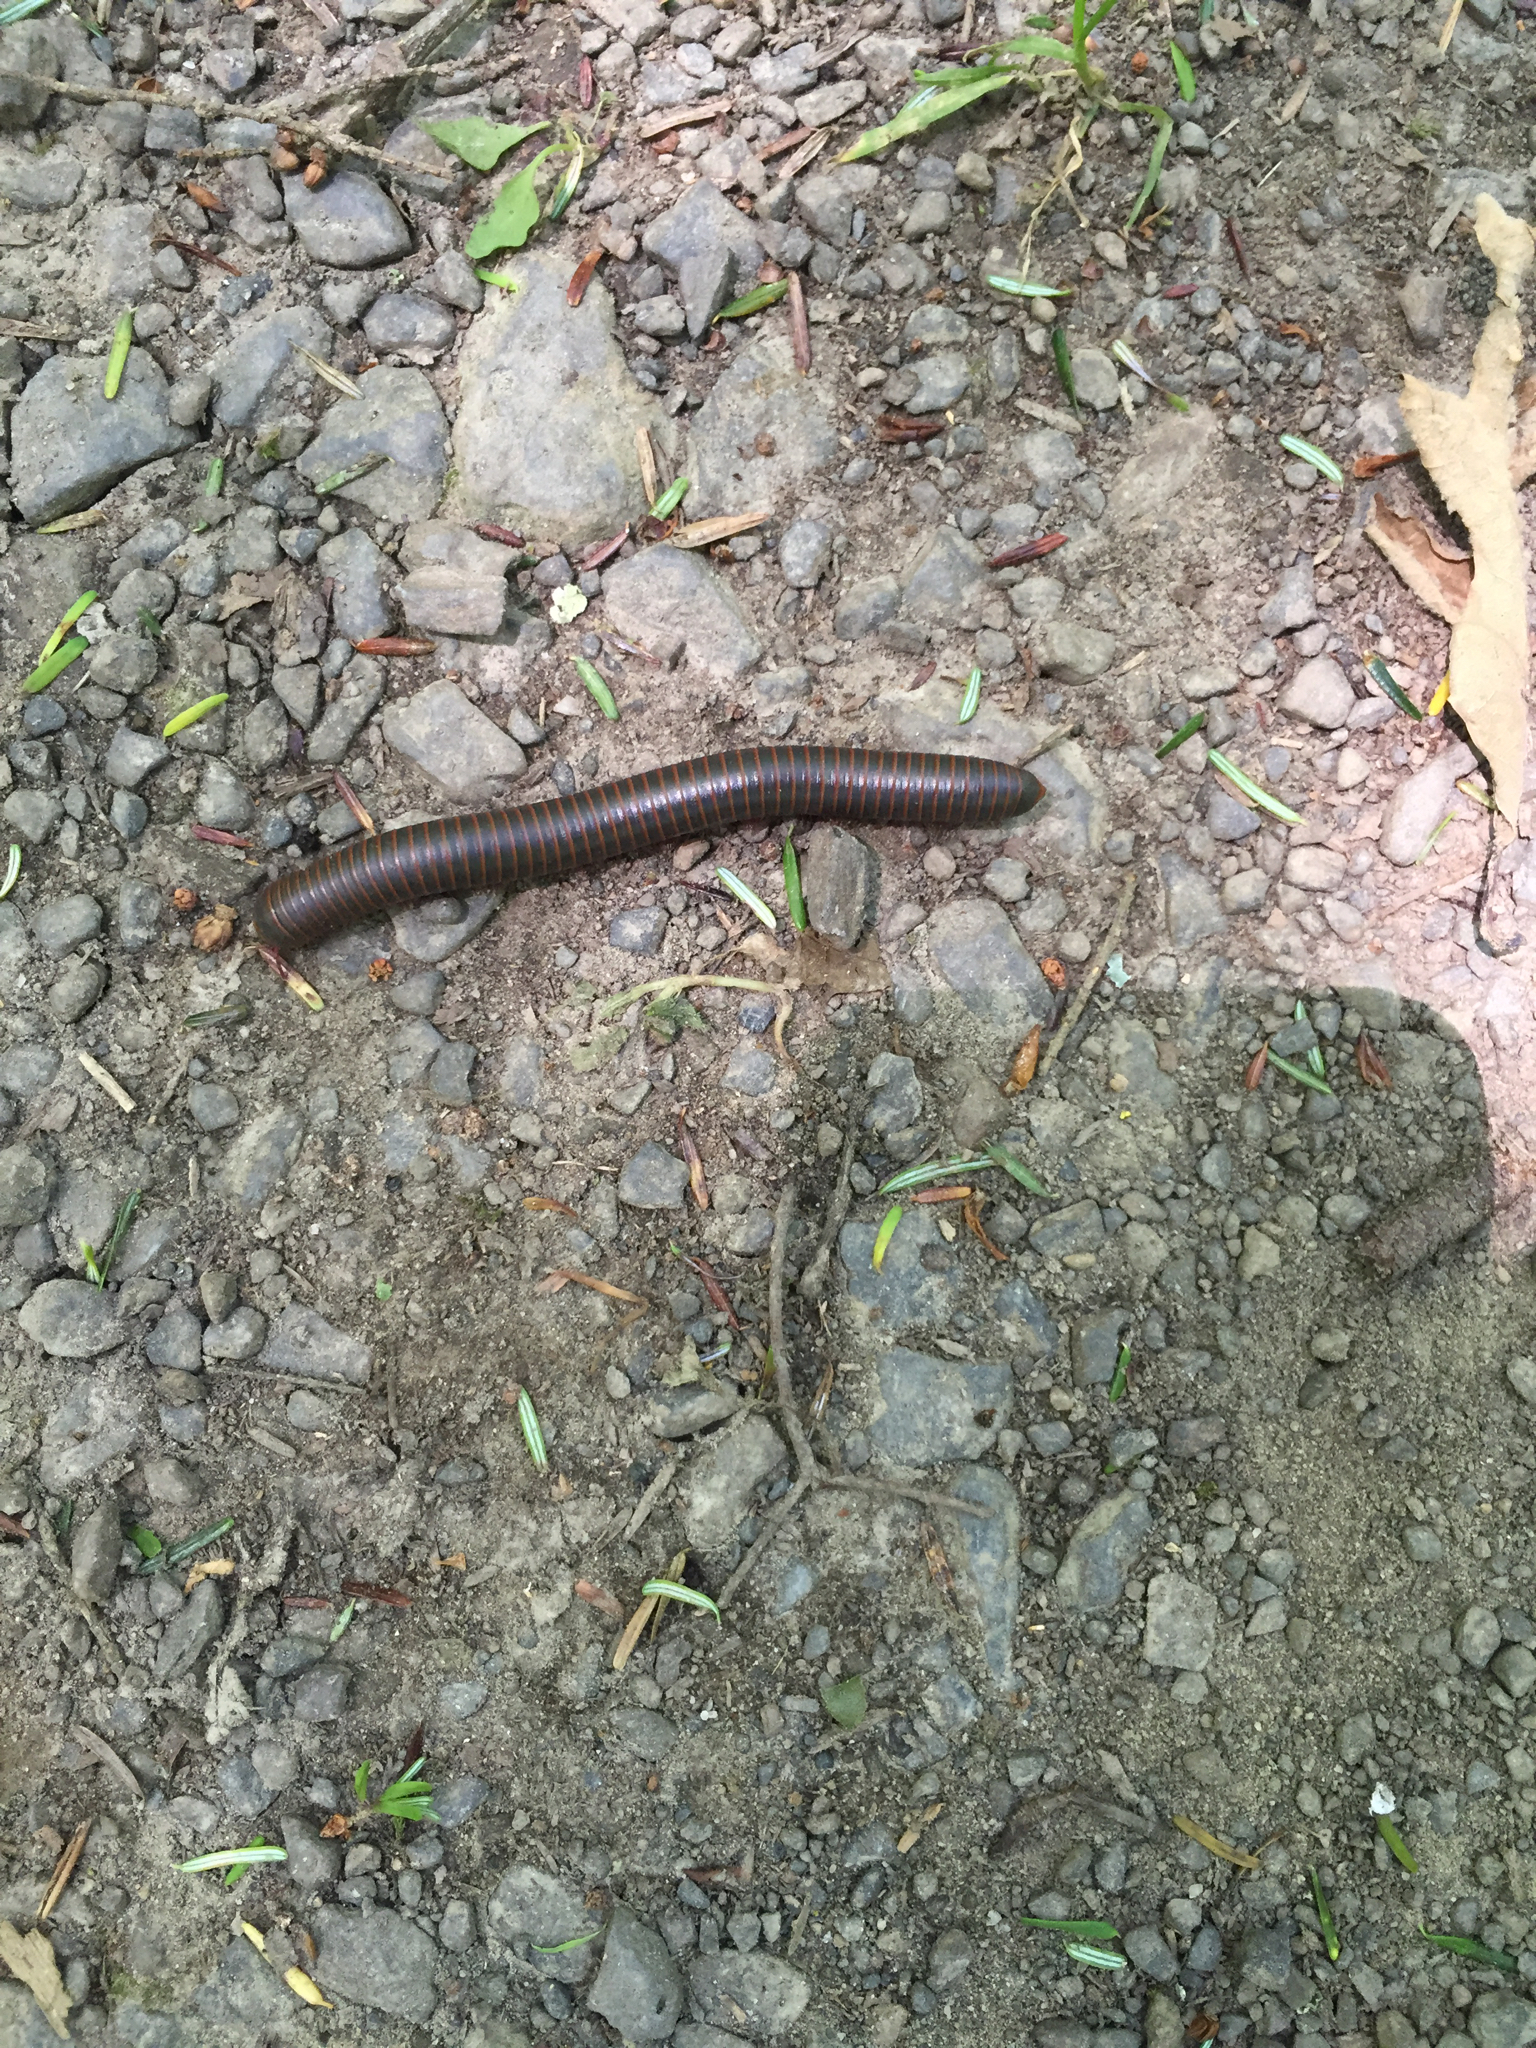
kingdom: Animalia
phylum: Arthropoda
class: Diplopoda
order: Spirobolida
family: Spirobolidae
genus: Narceus
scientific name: Narceus
